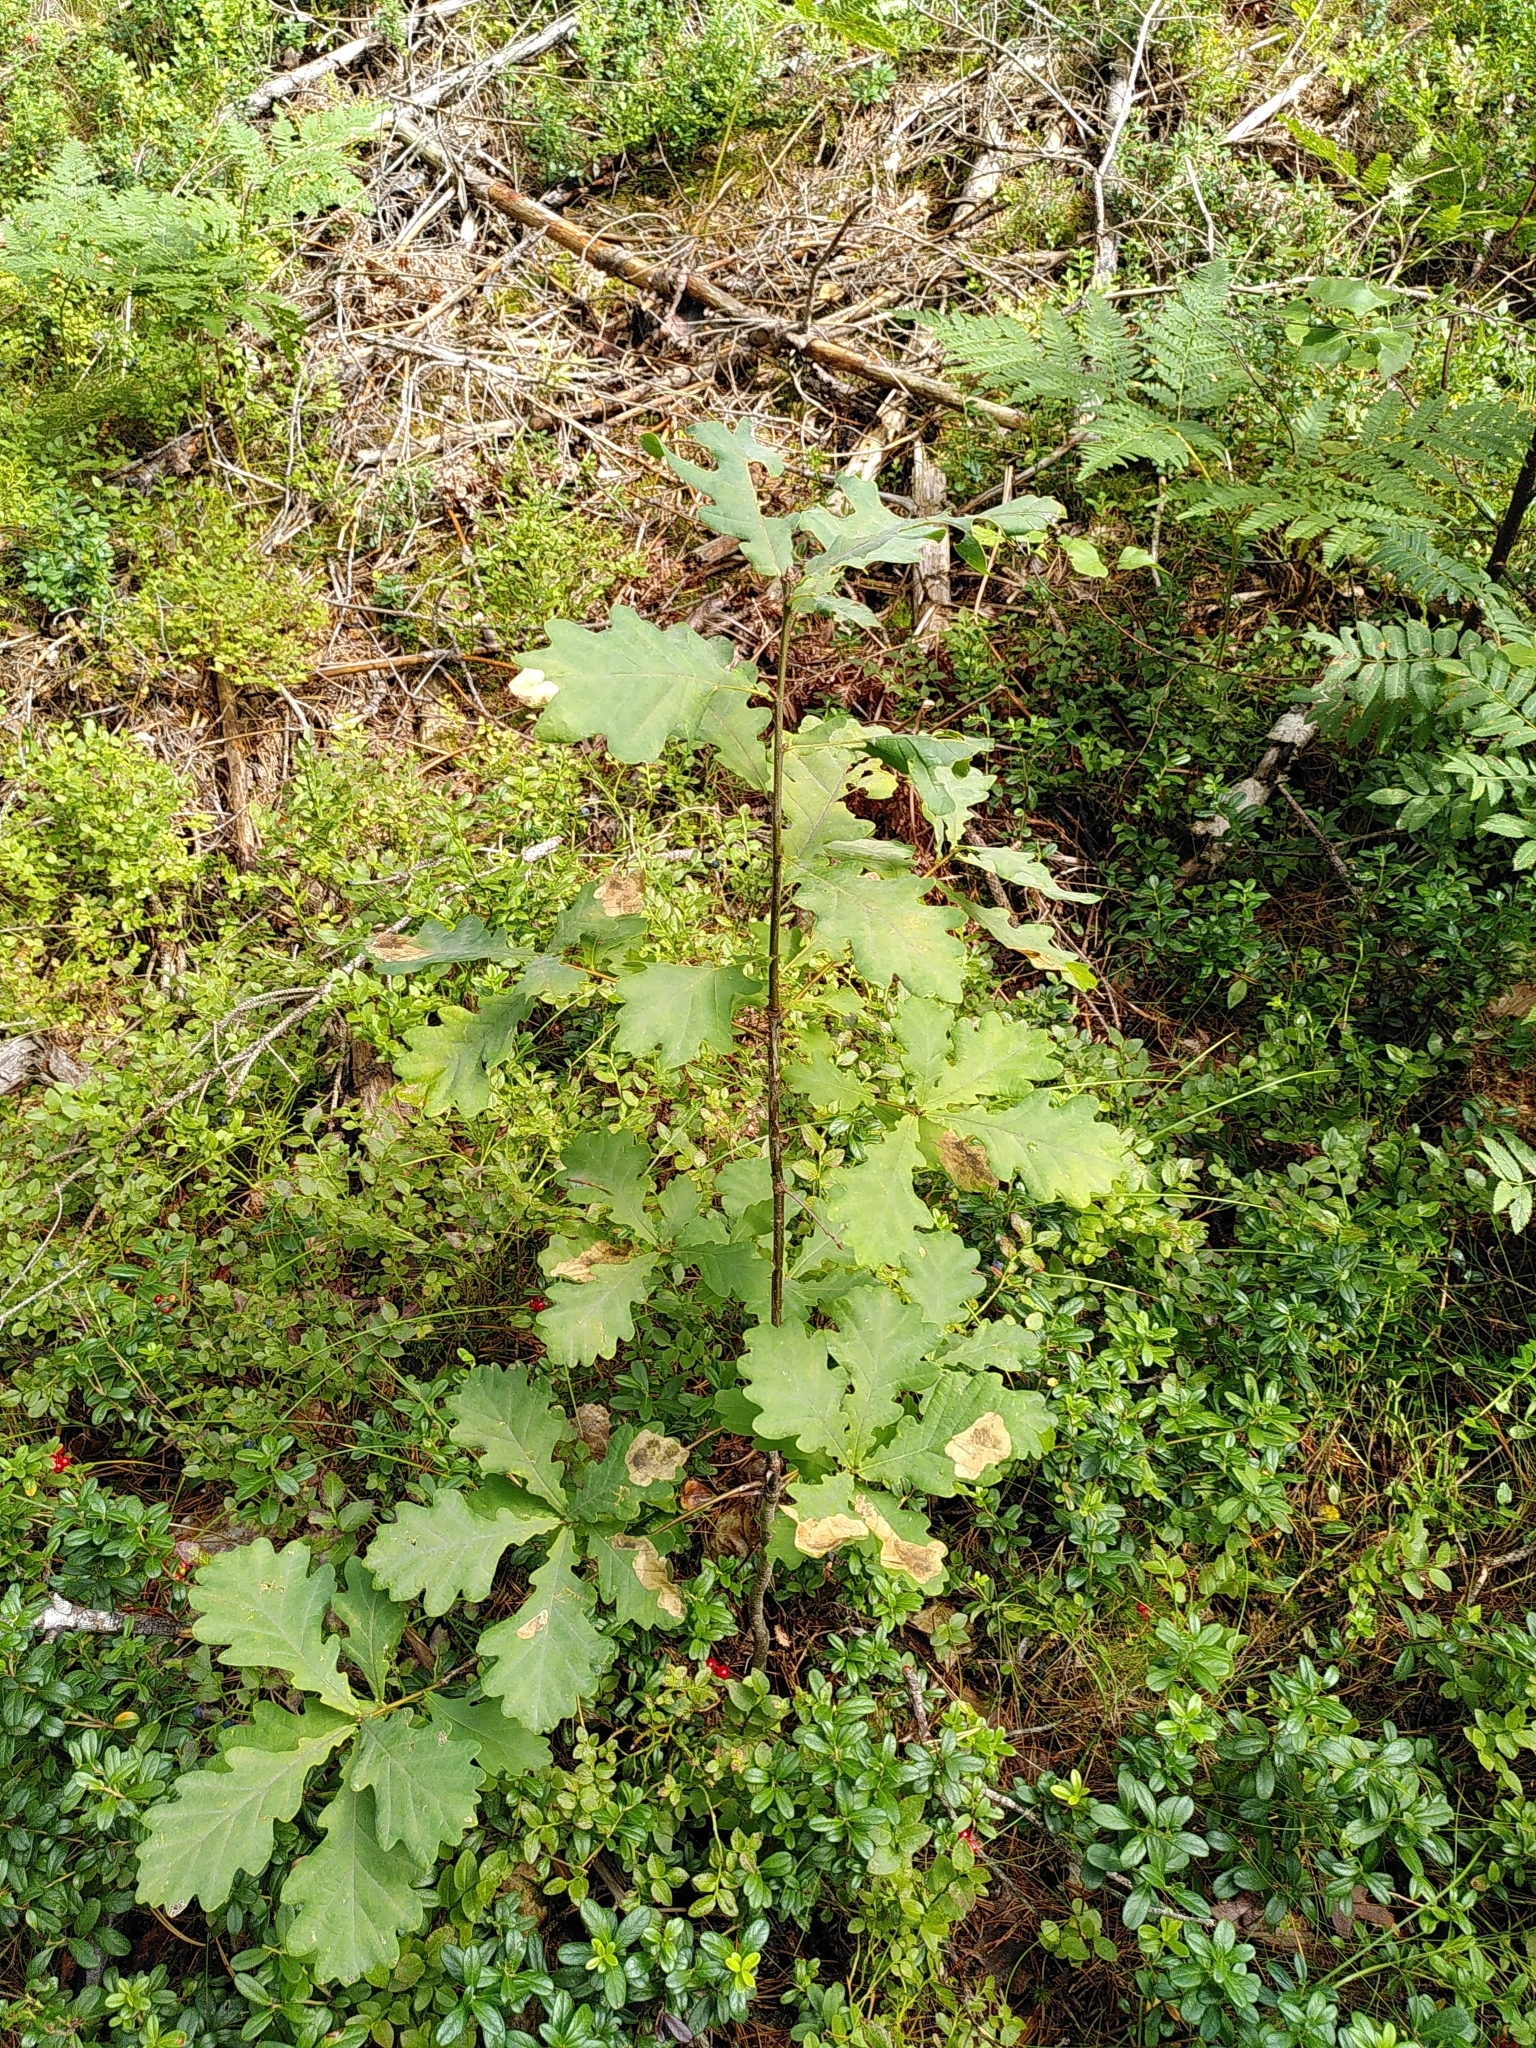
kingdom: Plantae
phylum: Tracheophyta
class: Magnoliopsida
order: Fagales
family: Fagaceae
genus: Quercus
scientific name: Quercus robur
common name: Pedunculate oak
